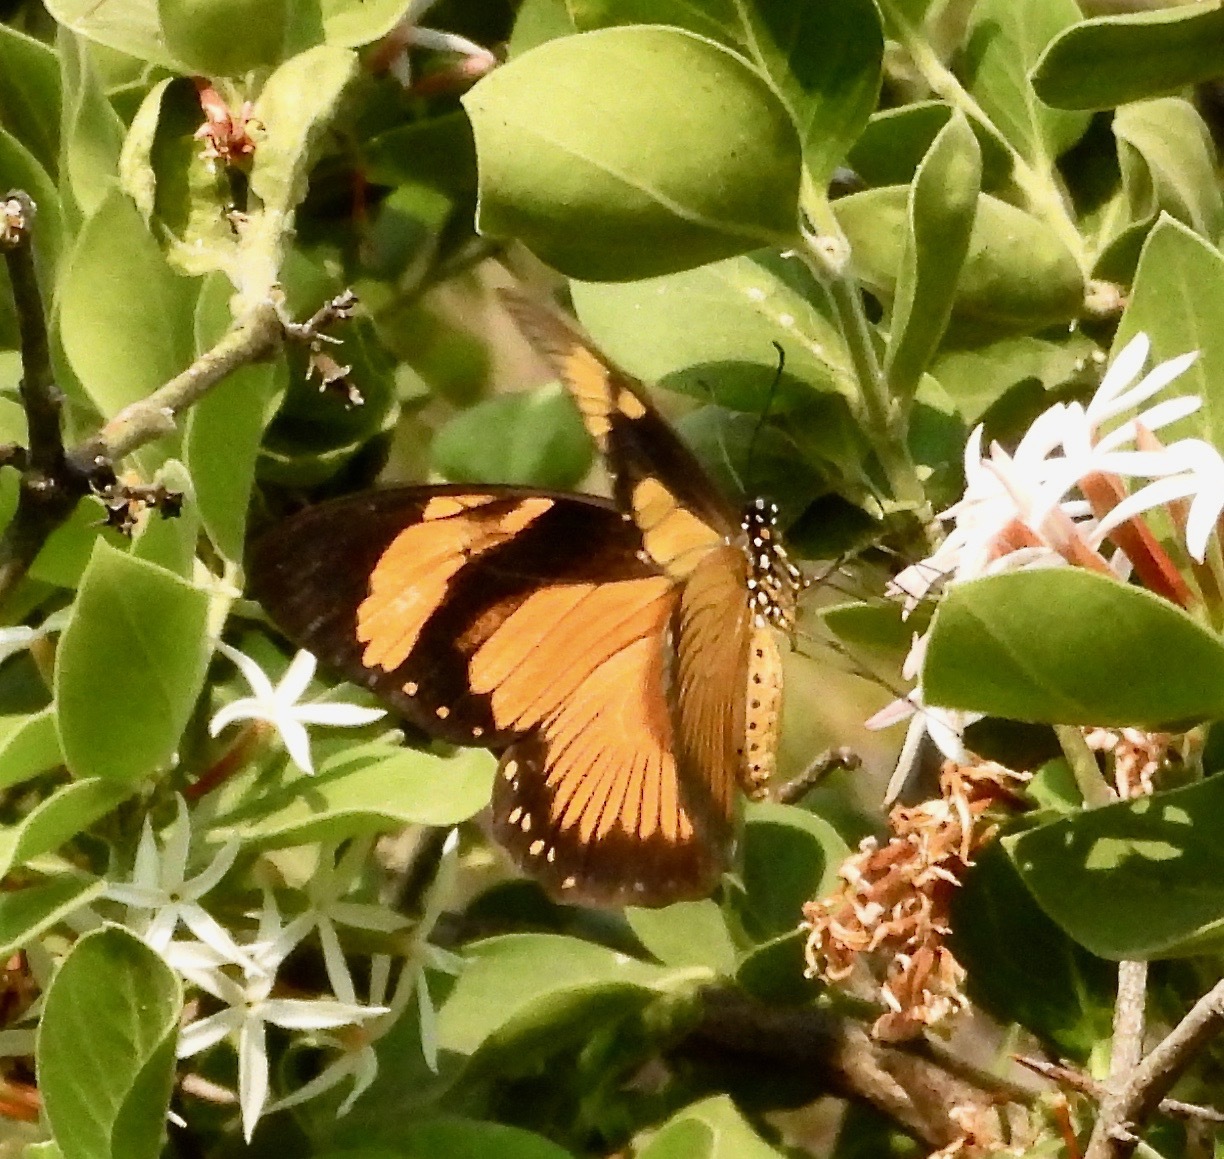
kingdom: Animalia
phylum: Arthropoda
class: Insecta
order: Lepidoptera
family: Papilionidae
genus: Papilio
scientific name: Papilio dardanus
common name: Flying handkerchief
